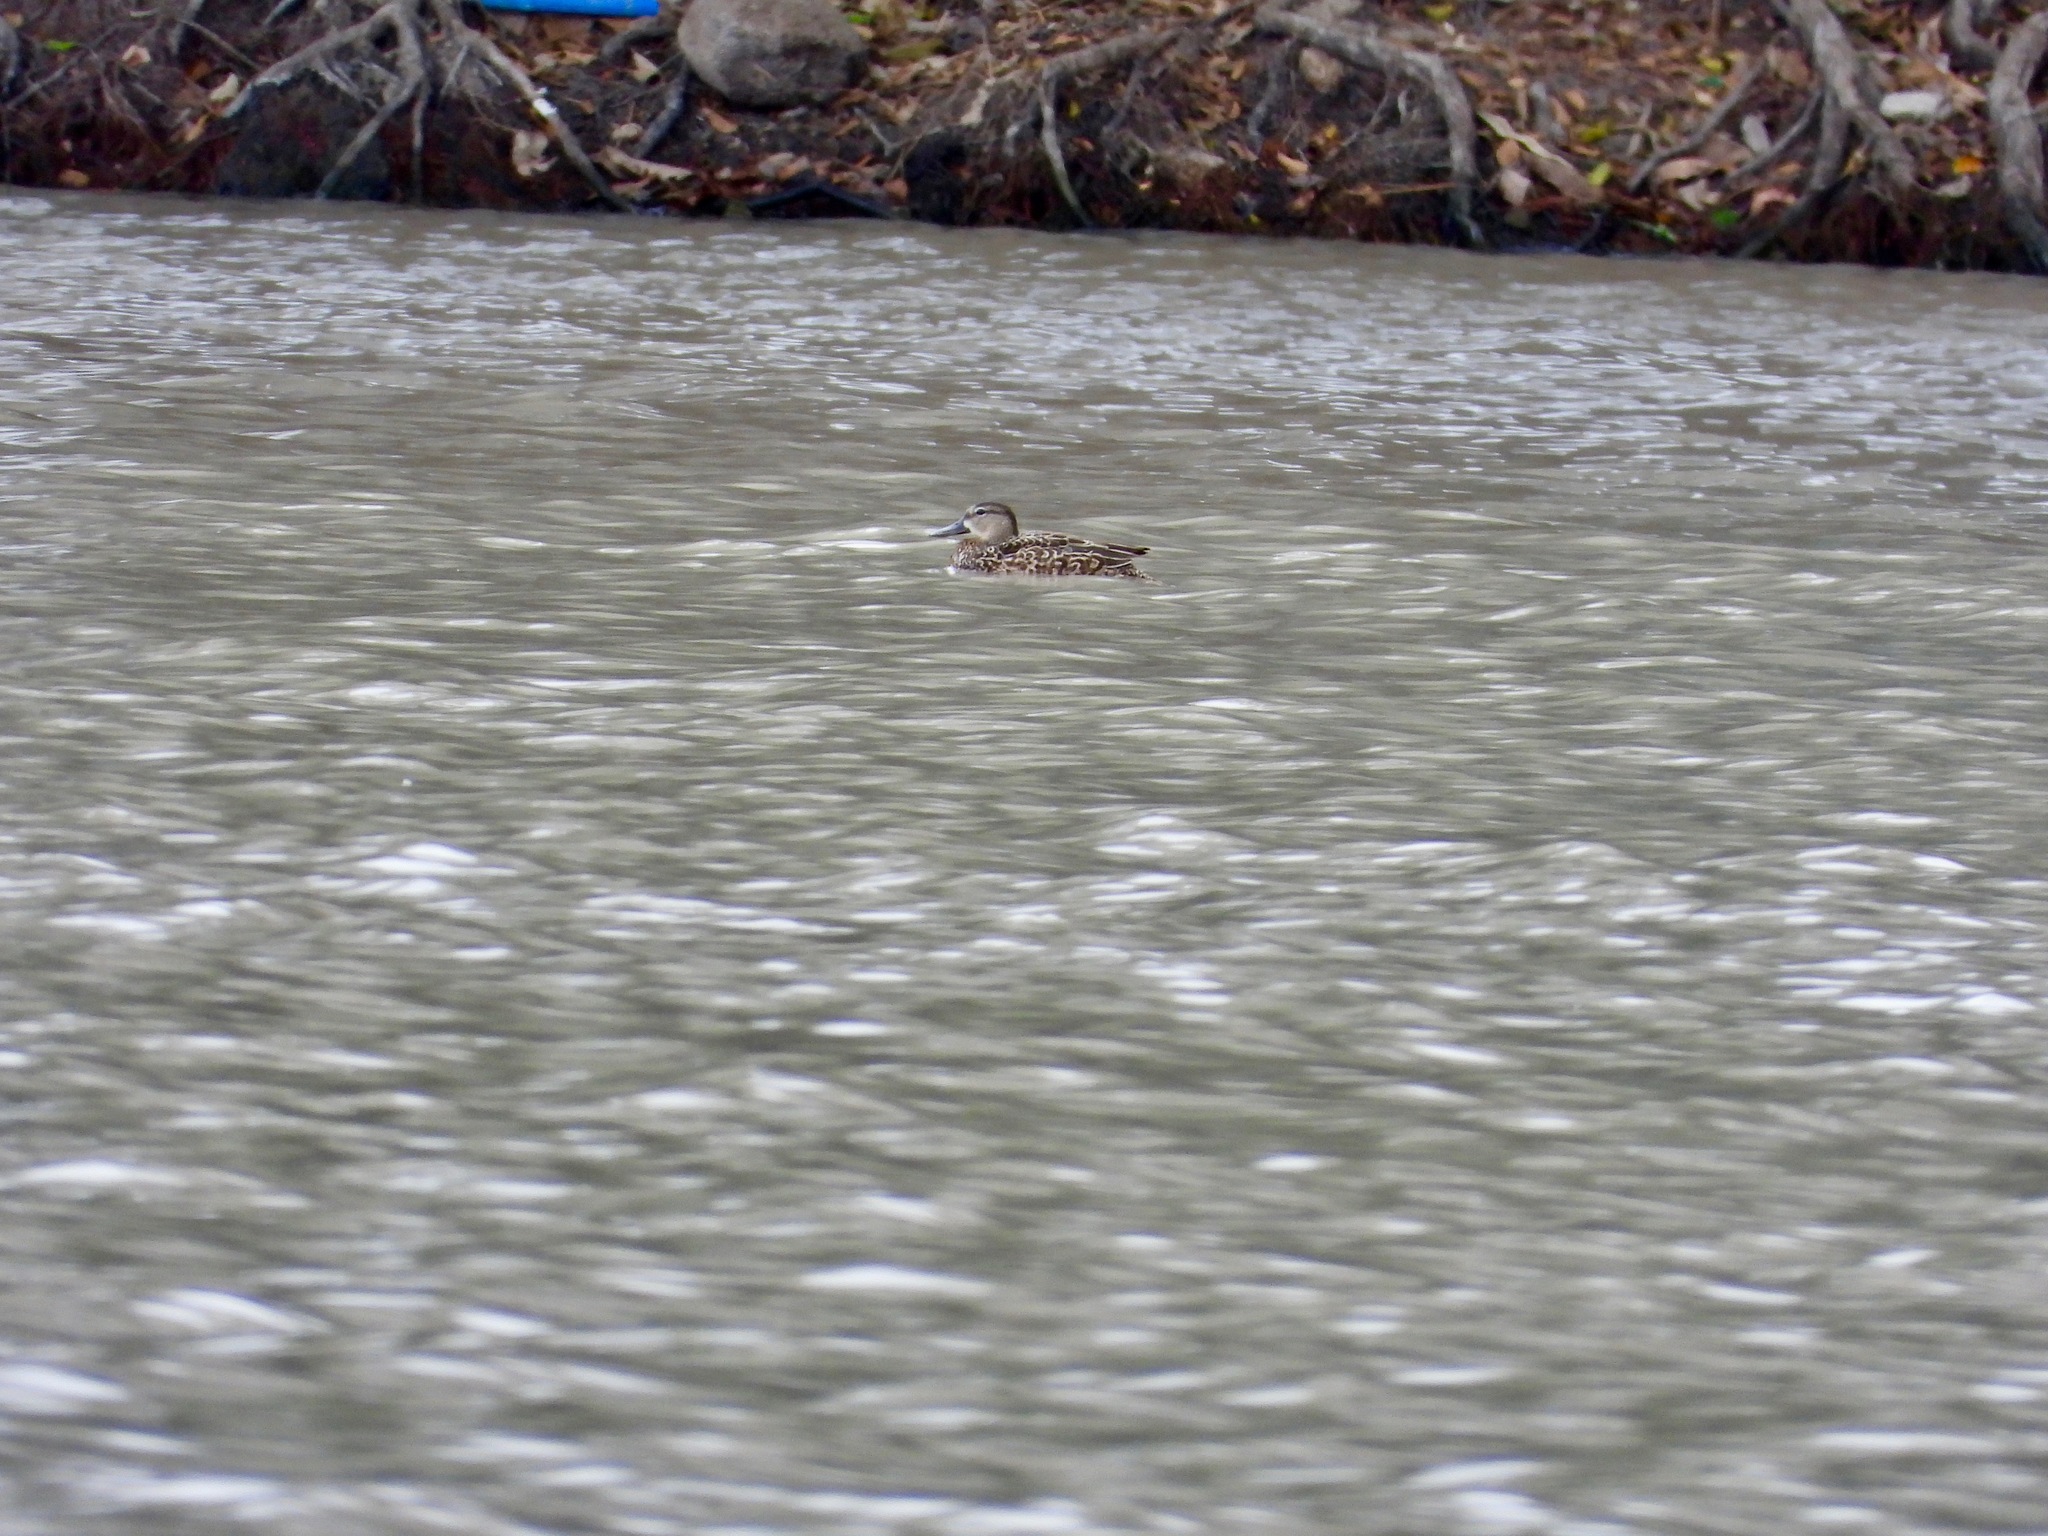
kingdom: Animalia
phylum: Chordata
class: Aves
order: Anseriformes
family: Anatidae
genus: Spatula
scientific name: Spatula discors
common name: Blue-winged teal
